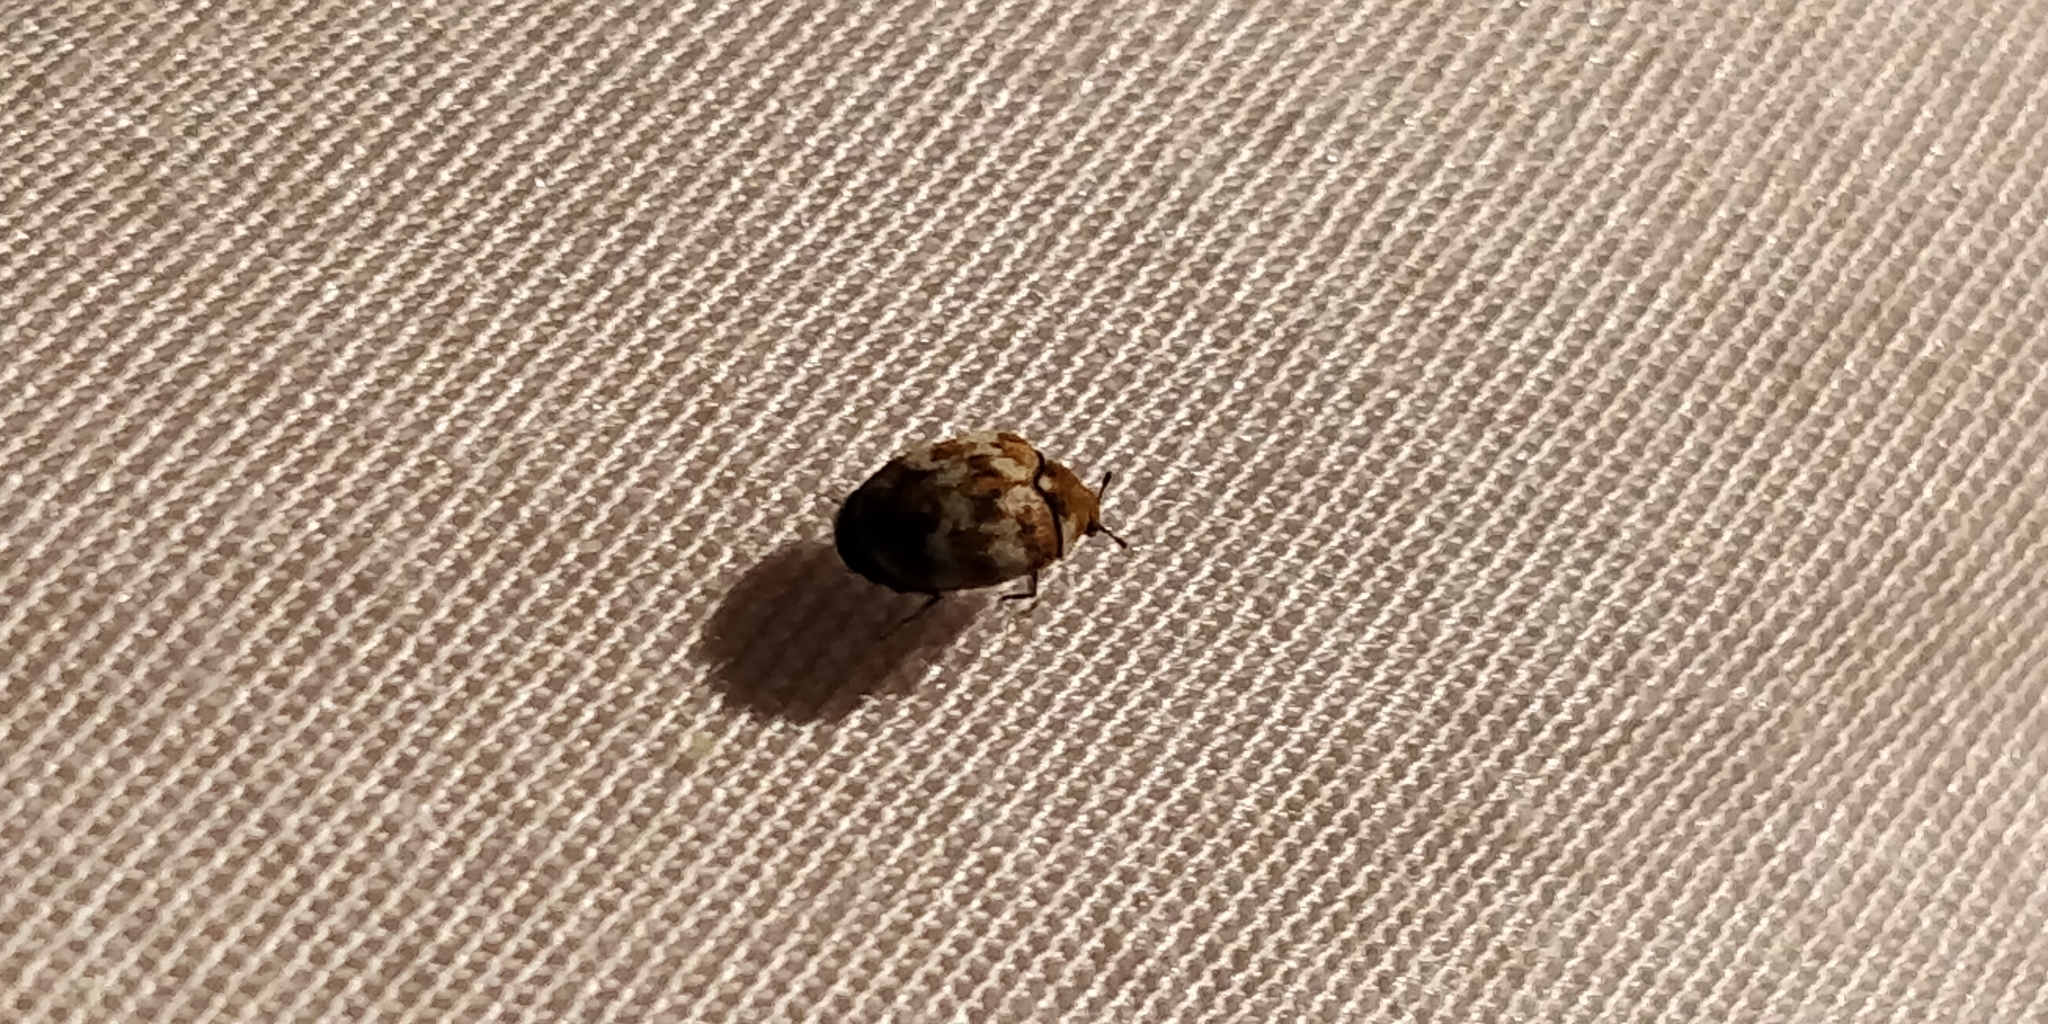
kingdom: Animalia
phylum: Arthropoda
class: Insecta
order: Coleoptera
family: Dermestidae
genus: Anthrenus
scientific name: Anthrenus verbasci
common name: Varied carpet beetle
